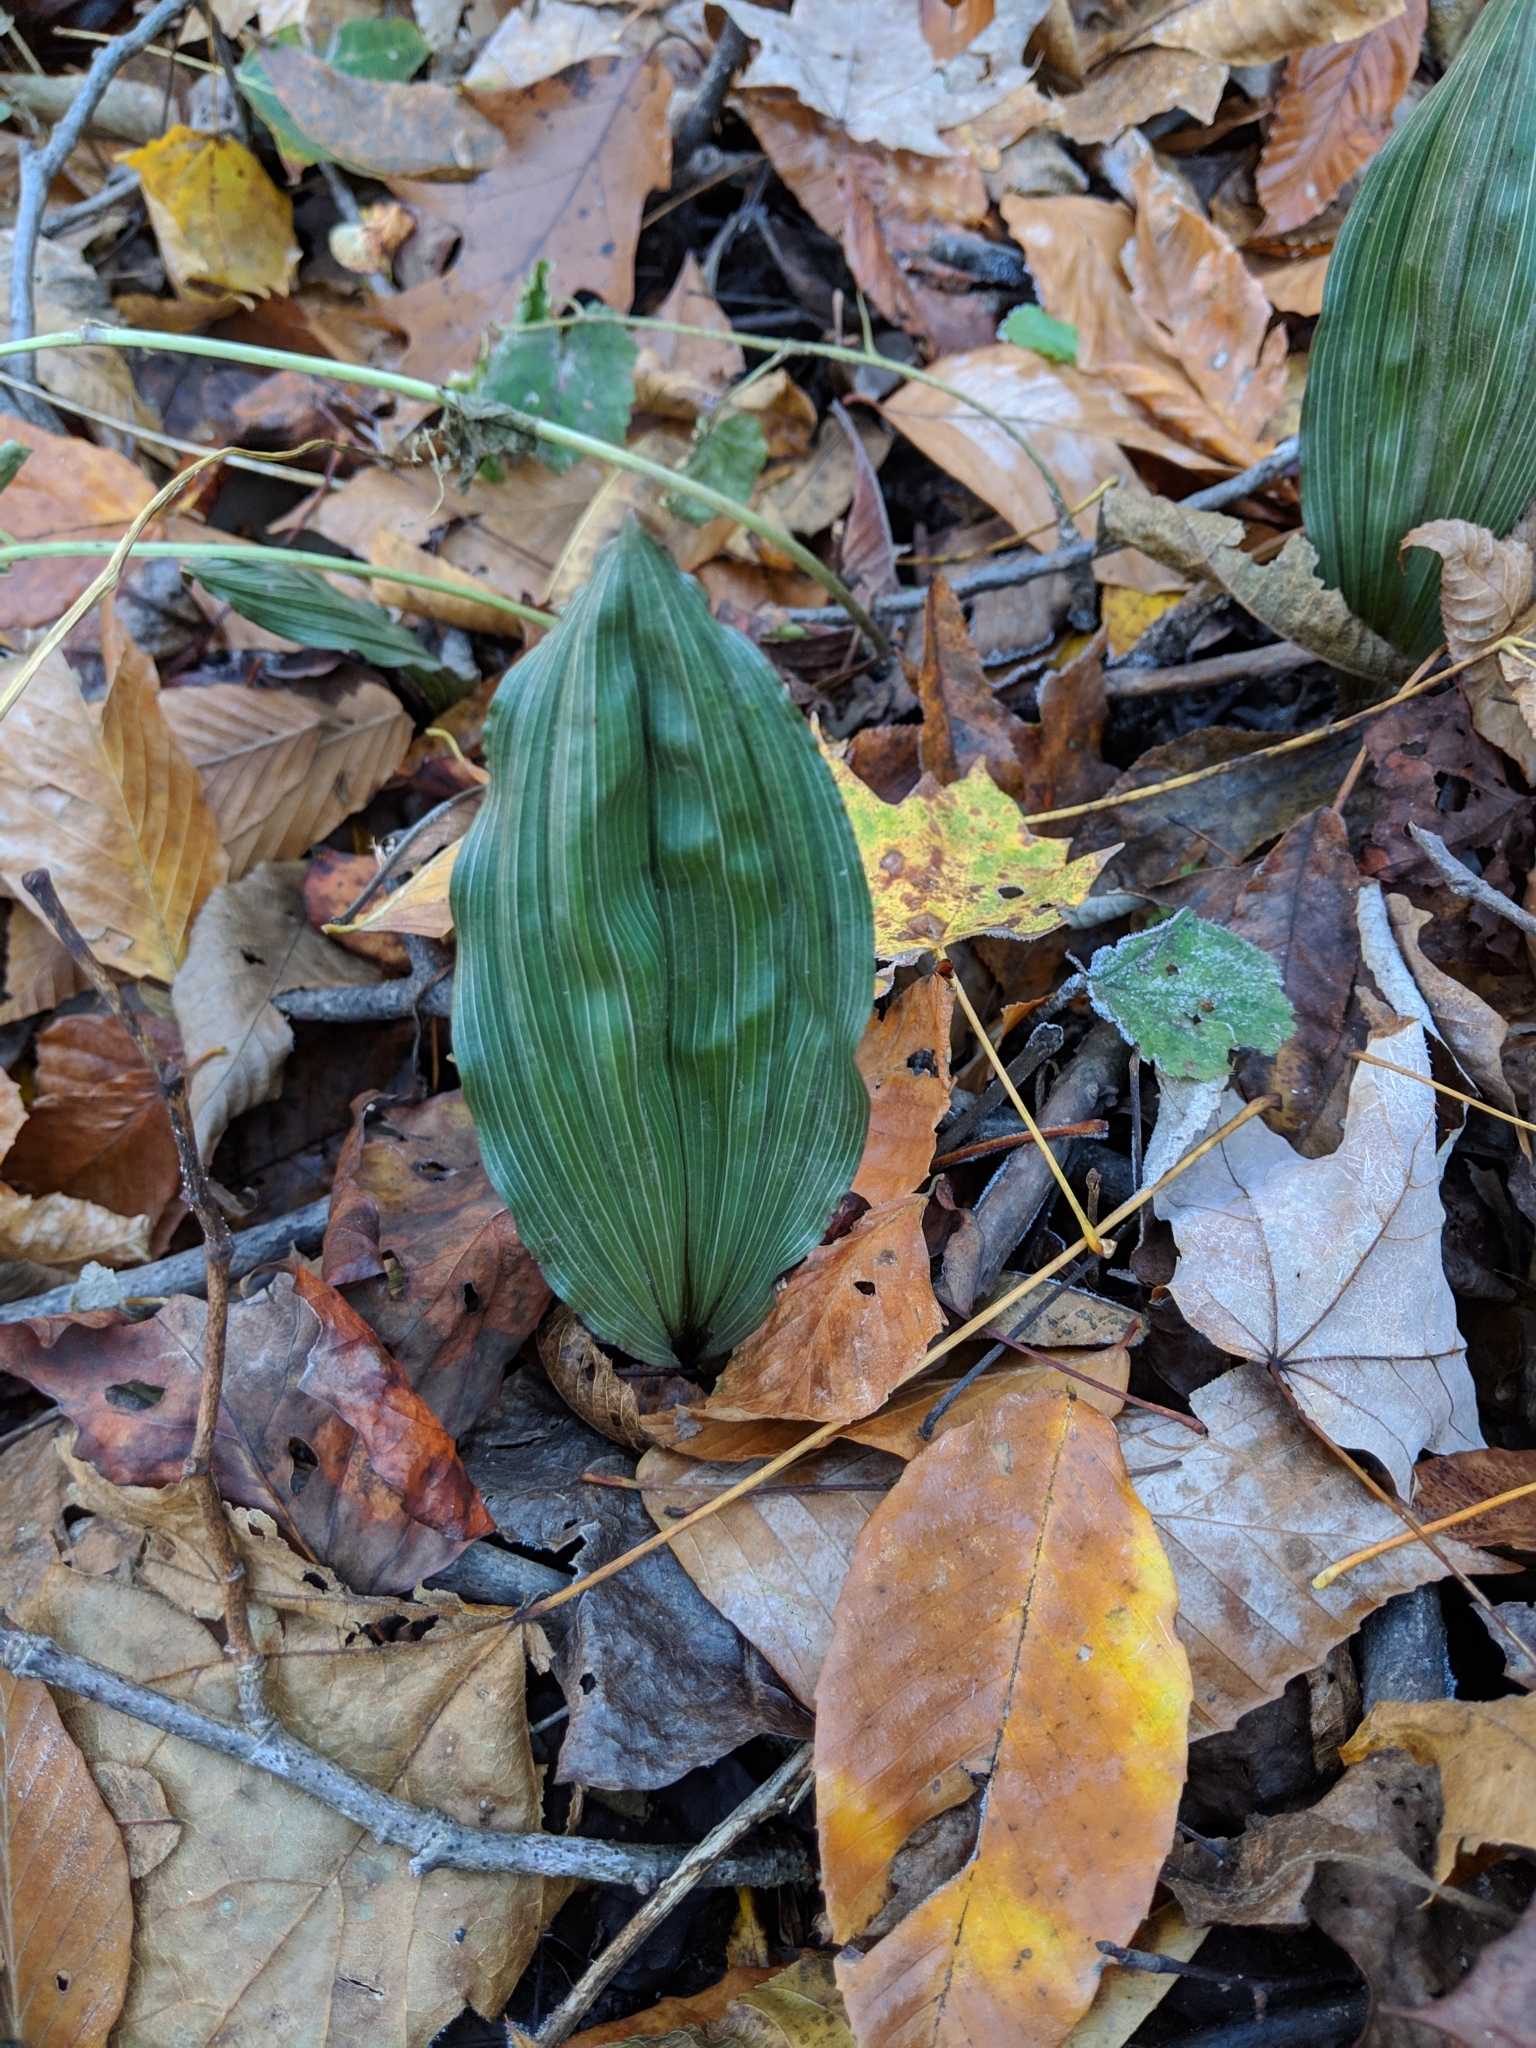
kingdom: Plantae
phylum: Tracheophyta
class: Liliopsida
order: Asparagales
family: Orchidaceae
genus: Aplectrum
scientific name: Aplectrum hyemale
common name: Adam-and-eve
